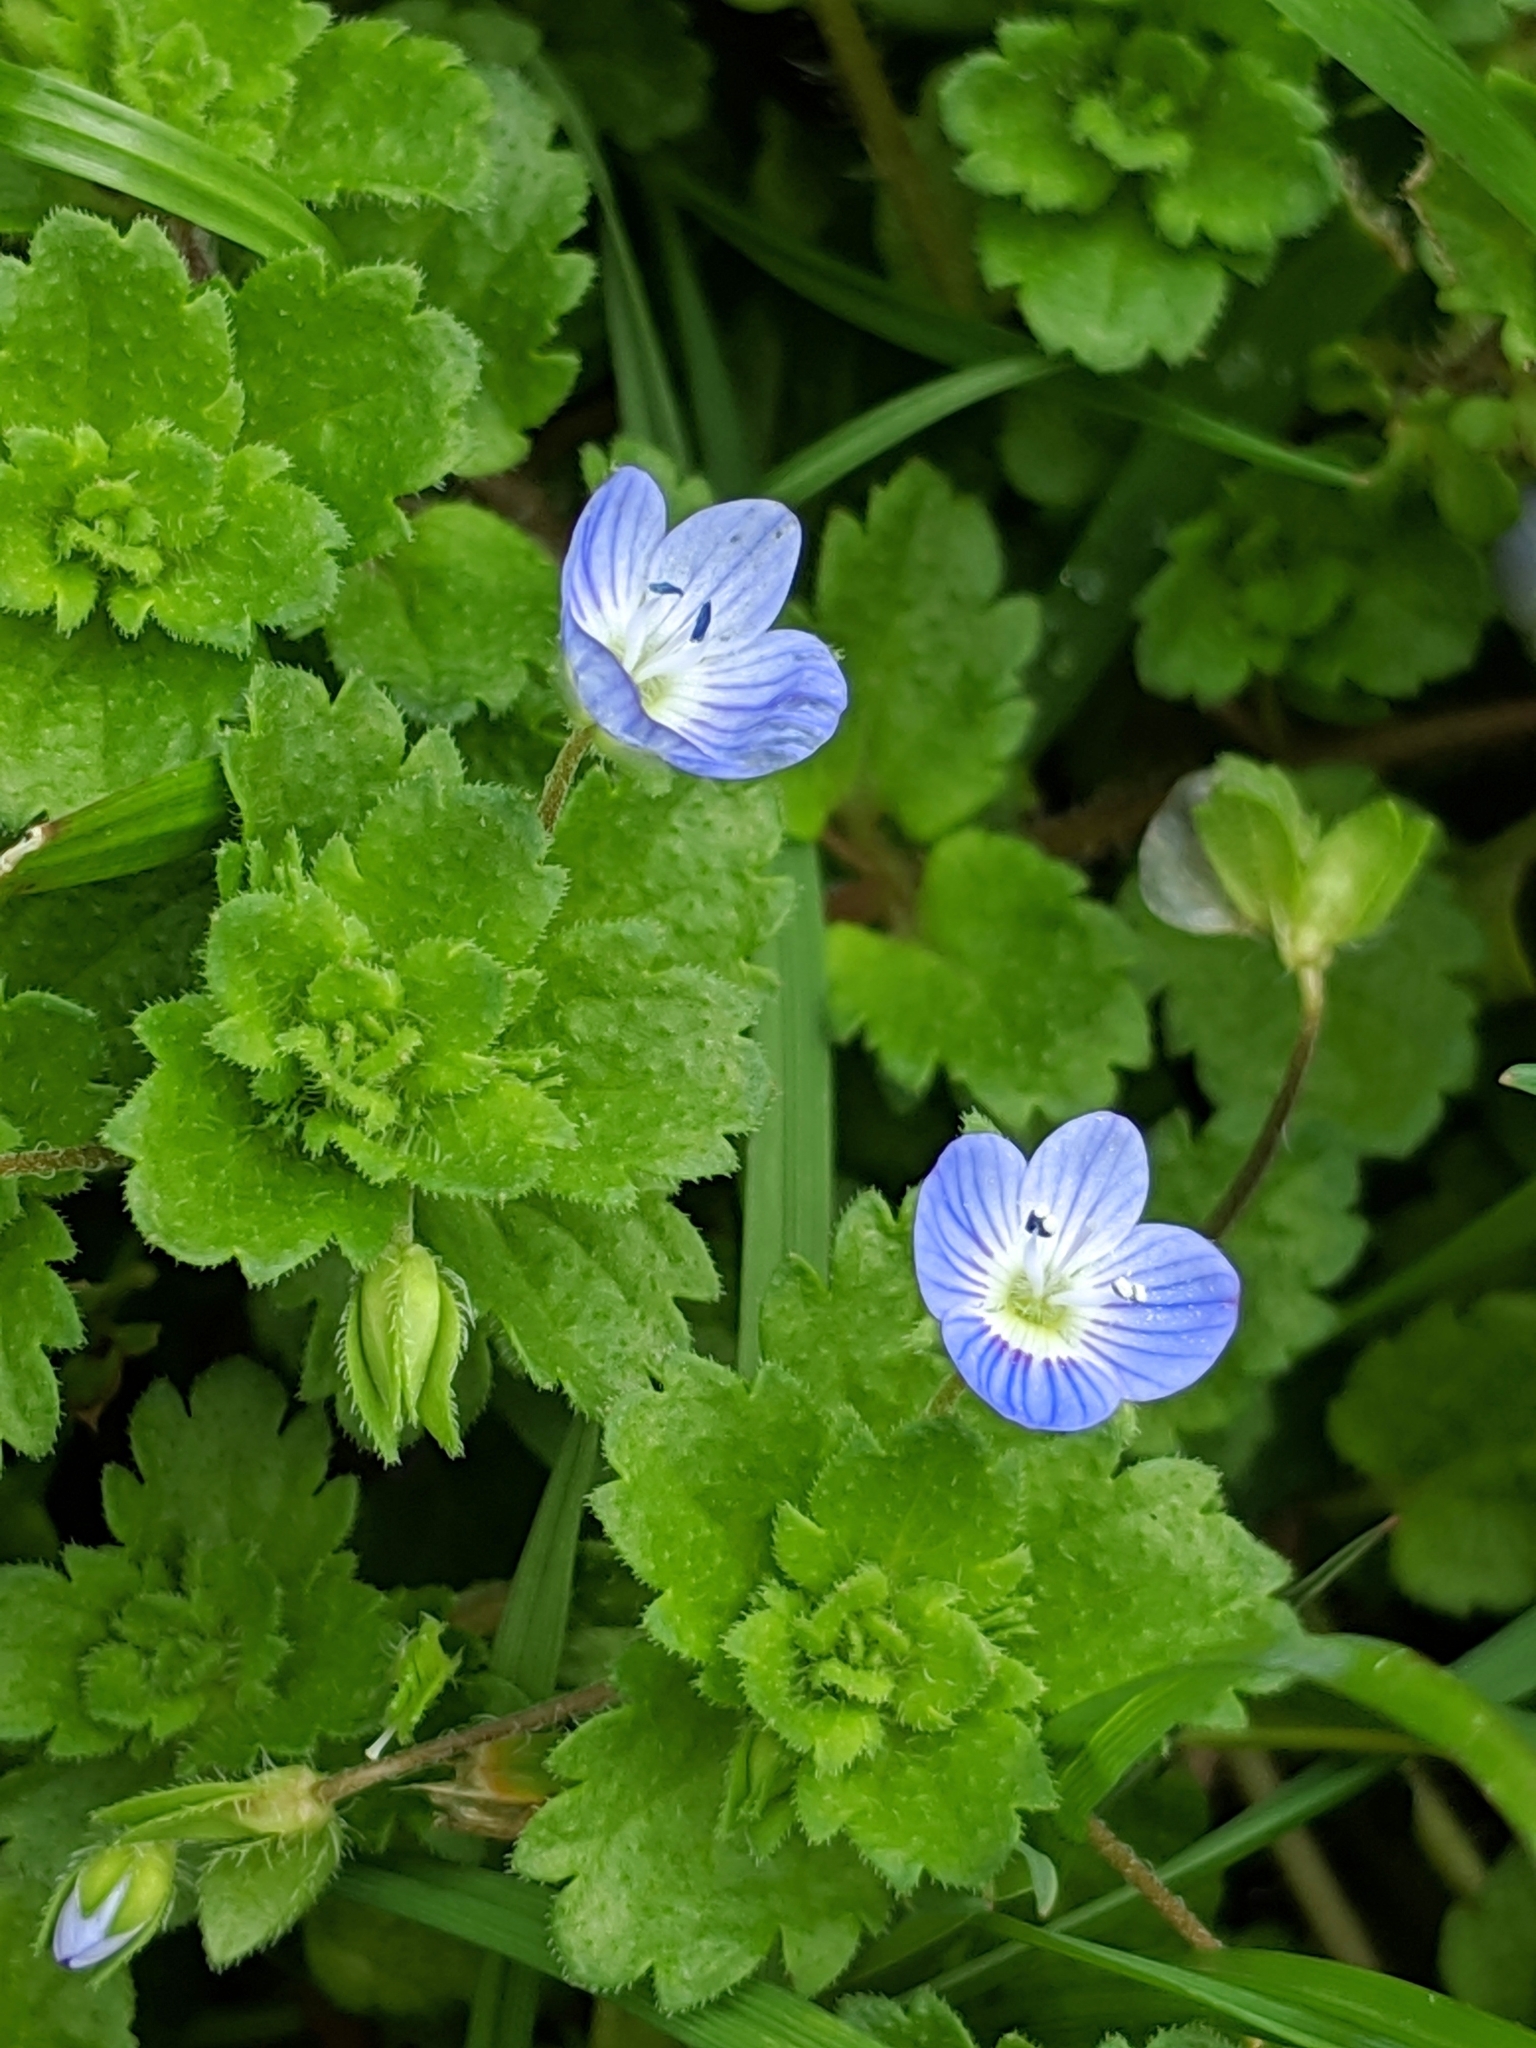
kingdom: Plantae
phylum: Tracheophyta
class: Magnoliopsida
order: Lamiales
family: Plantaginaceae
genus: Veronica
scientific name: Veronica persica
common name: Common field-speedwell
